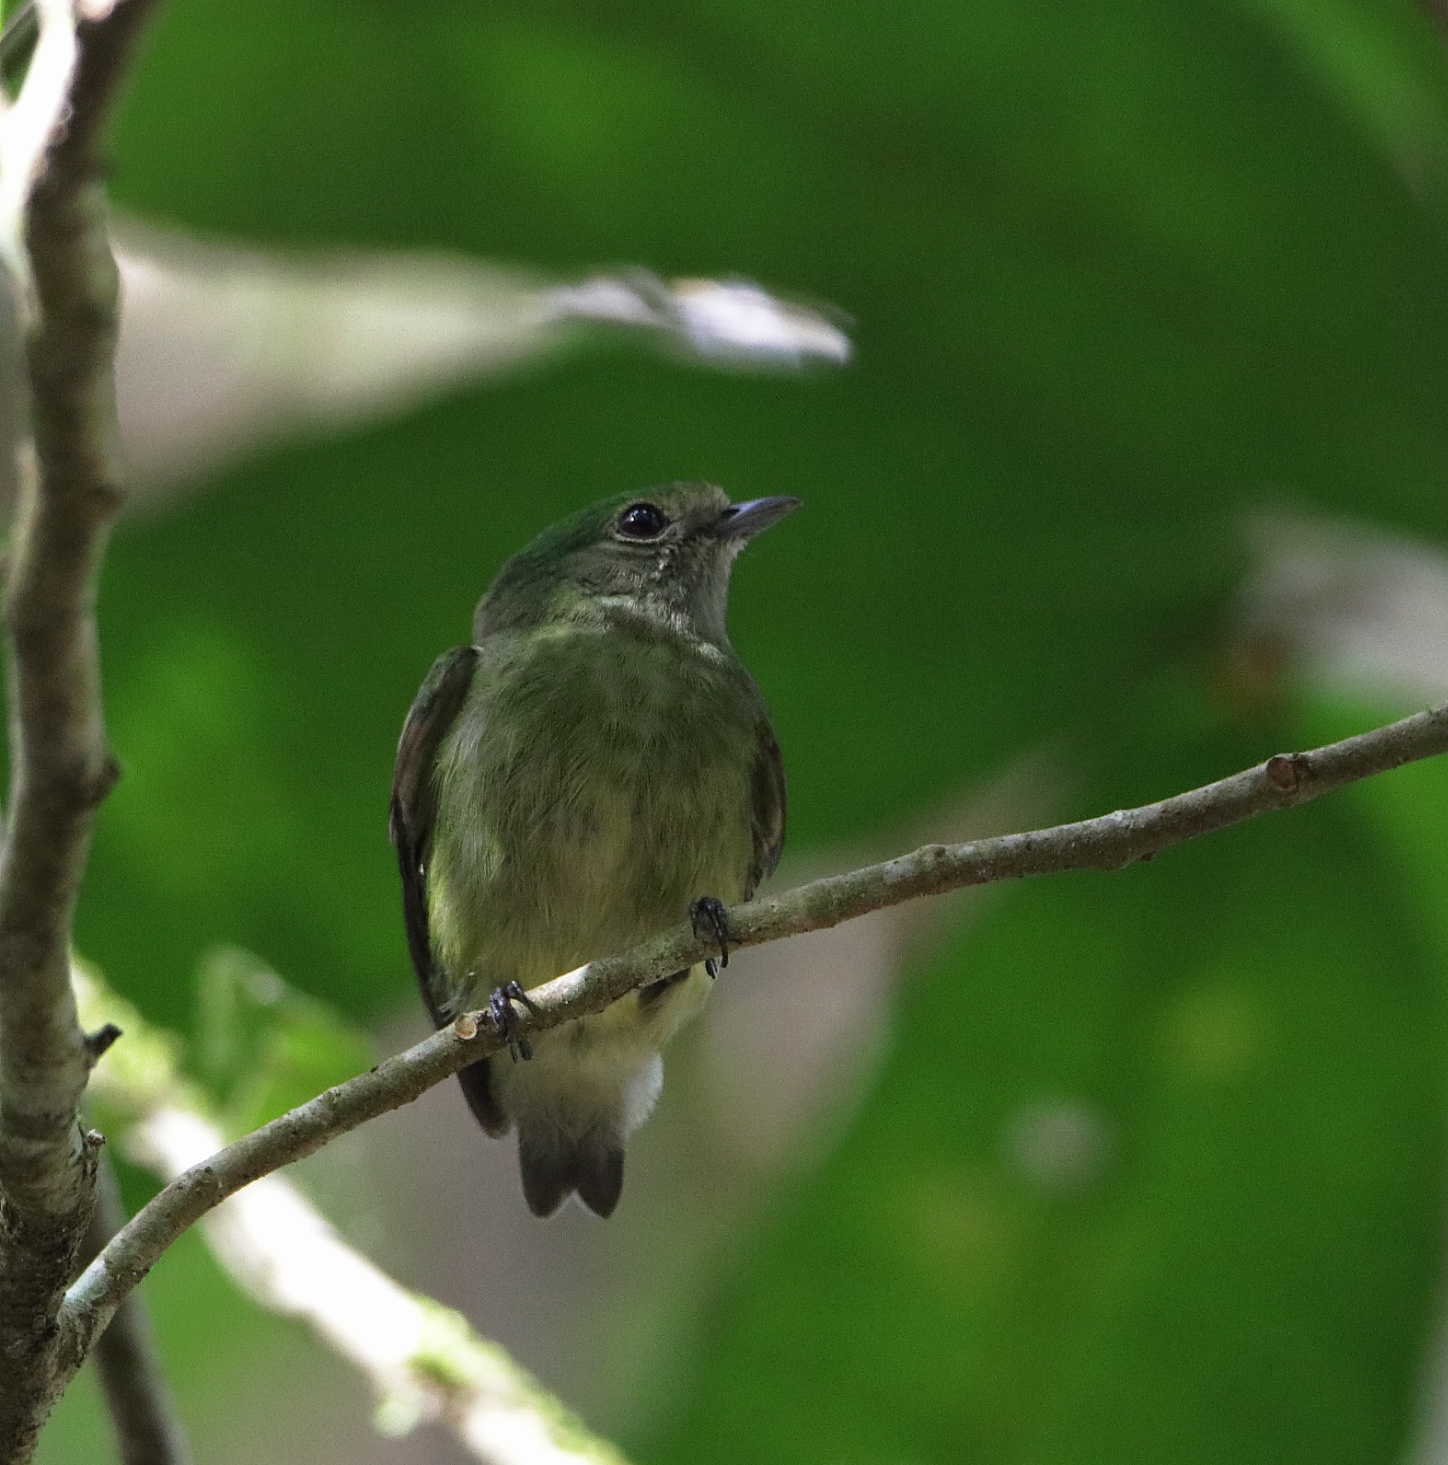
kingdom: Animalia
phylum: Chordata
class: Aves
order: Passeriformes
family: Pipridae
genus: Lepidothrix
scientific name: Lepidothrix coronata
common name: Blue-crowned manakin
